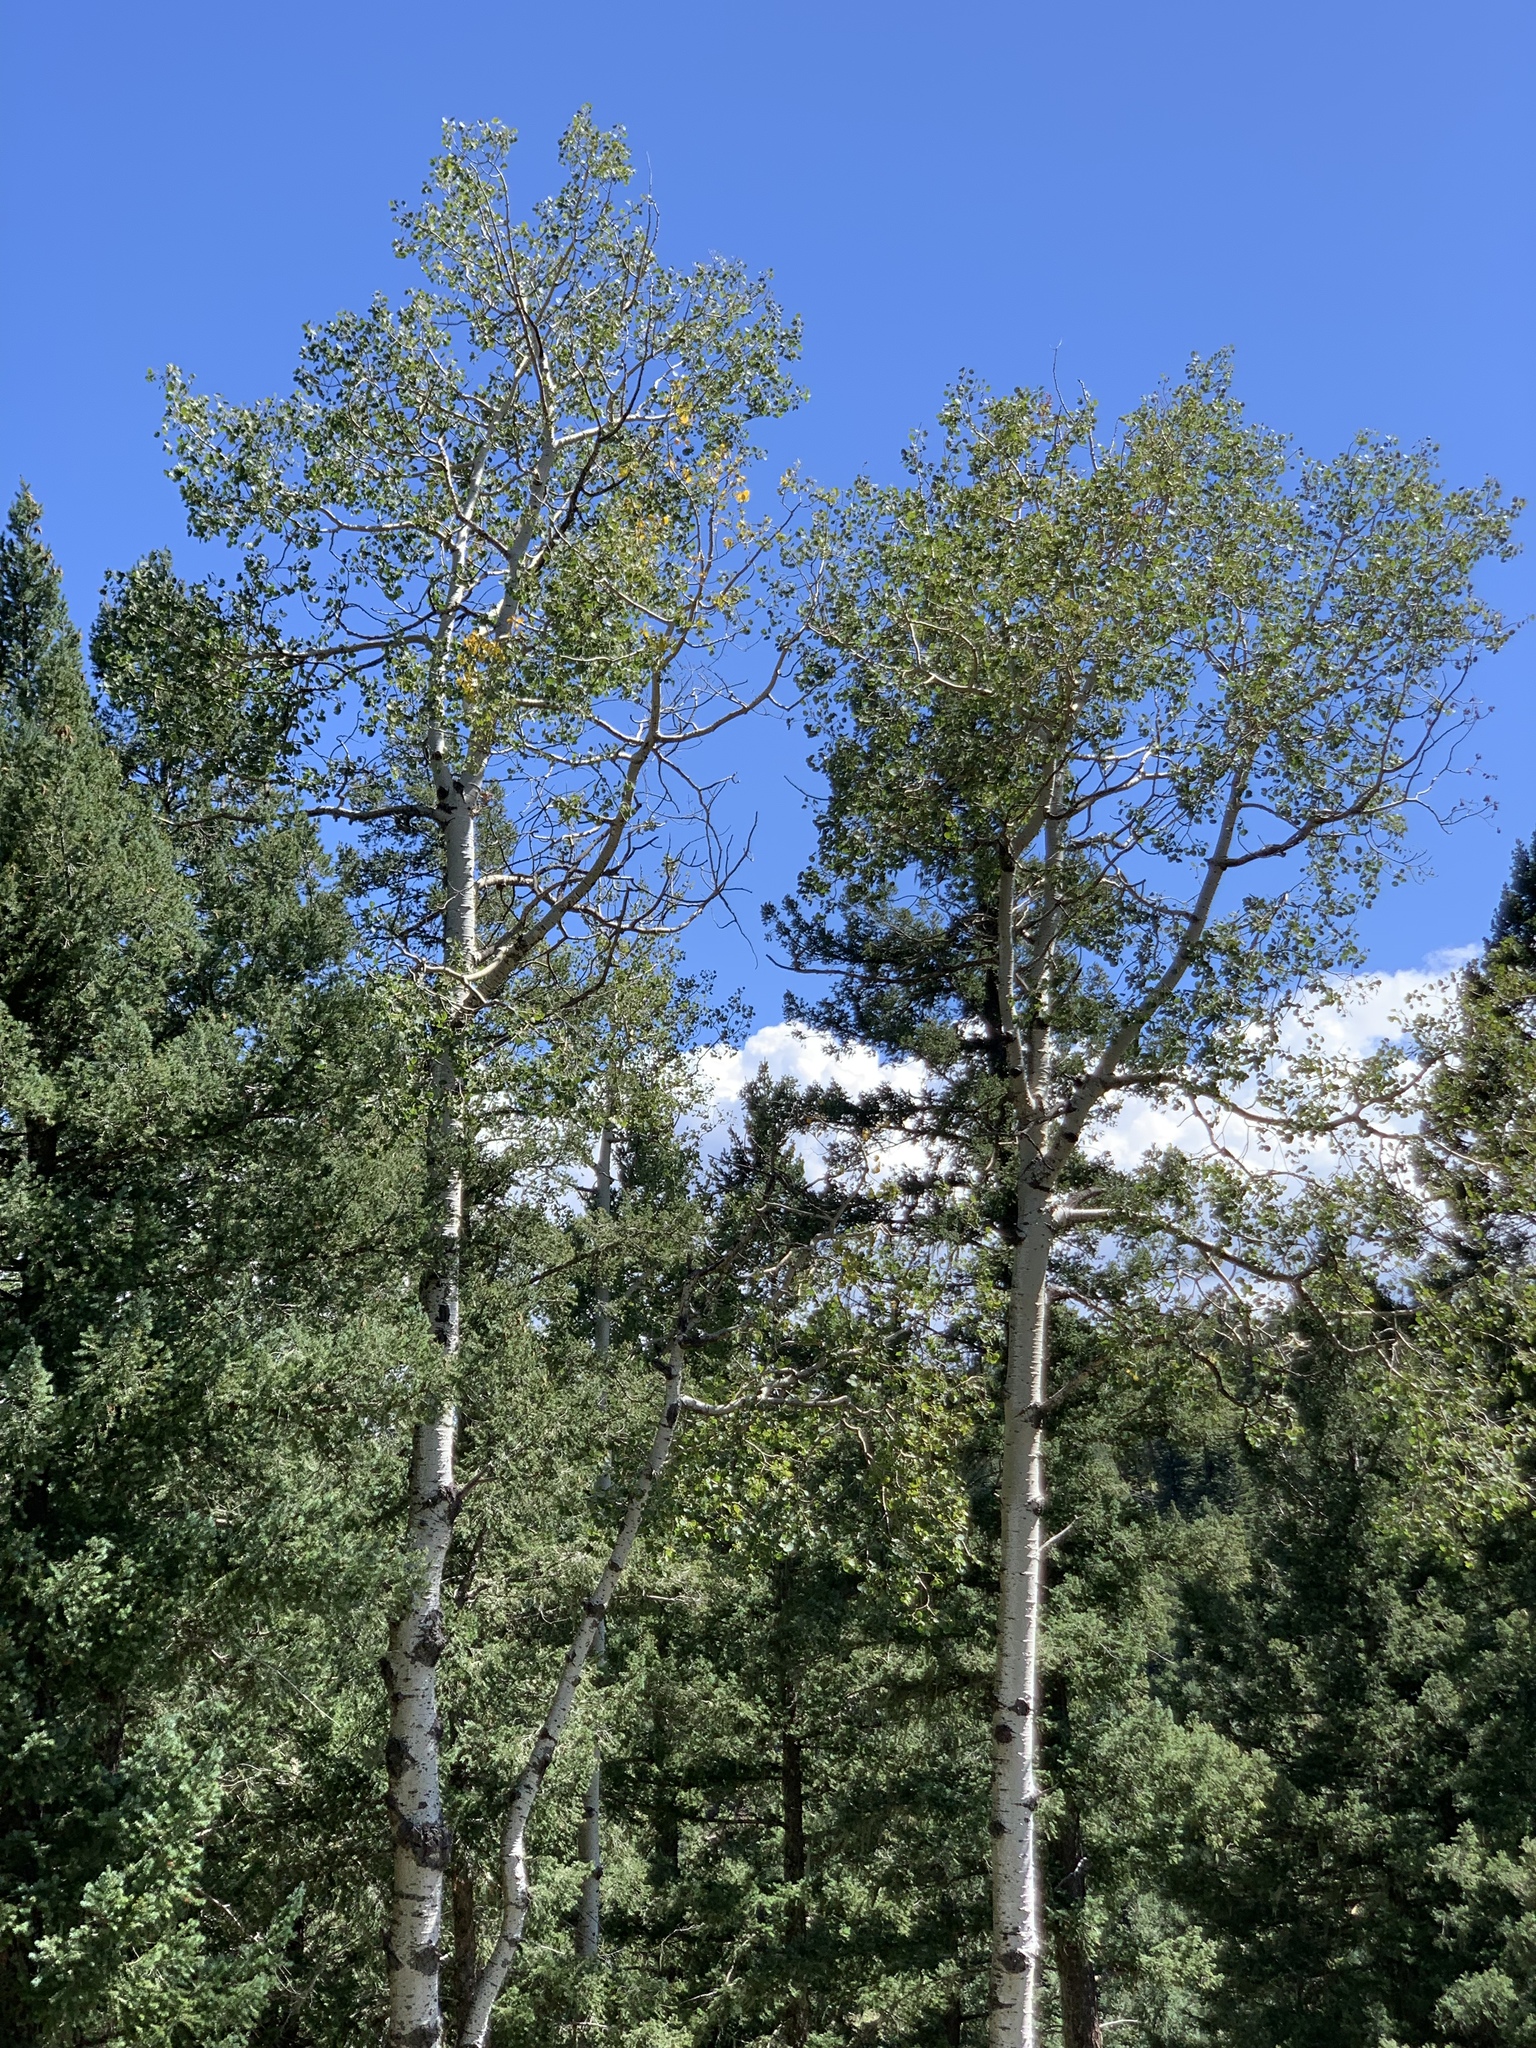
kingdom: Plantae
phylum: Tracheophyta
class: Magnoliopsida
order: Malpighiales
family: Salicaceae
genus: Populus
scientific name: Populus tremuloides
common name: Quaking aspen
